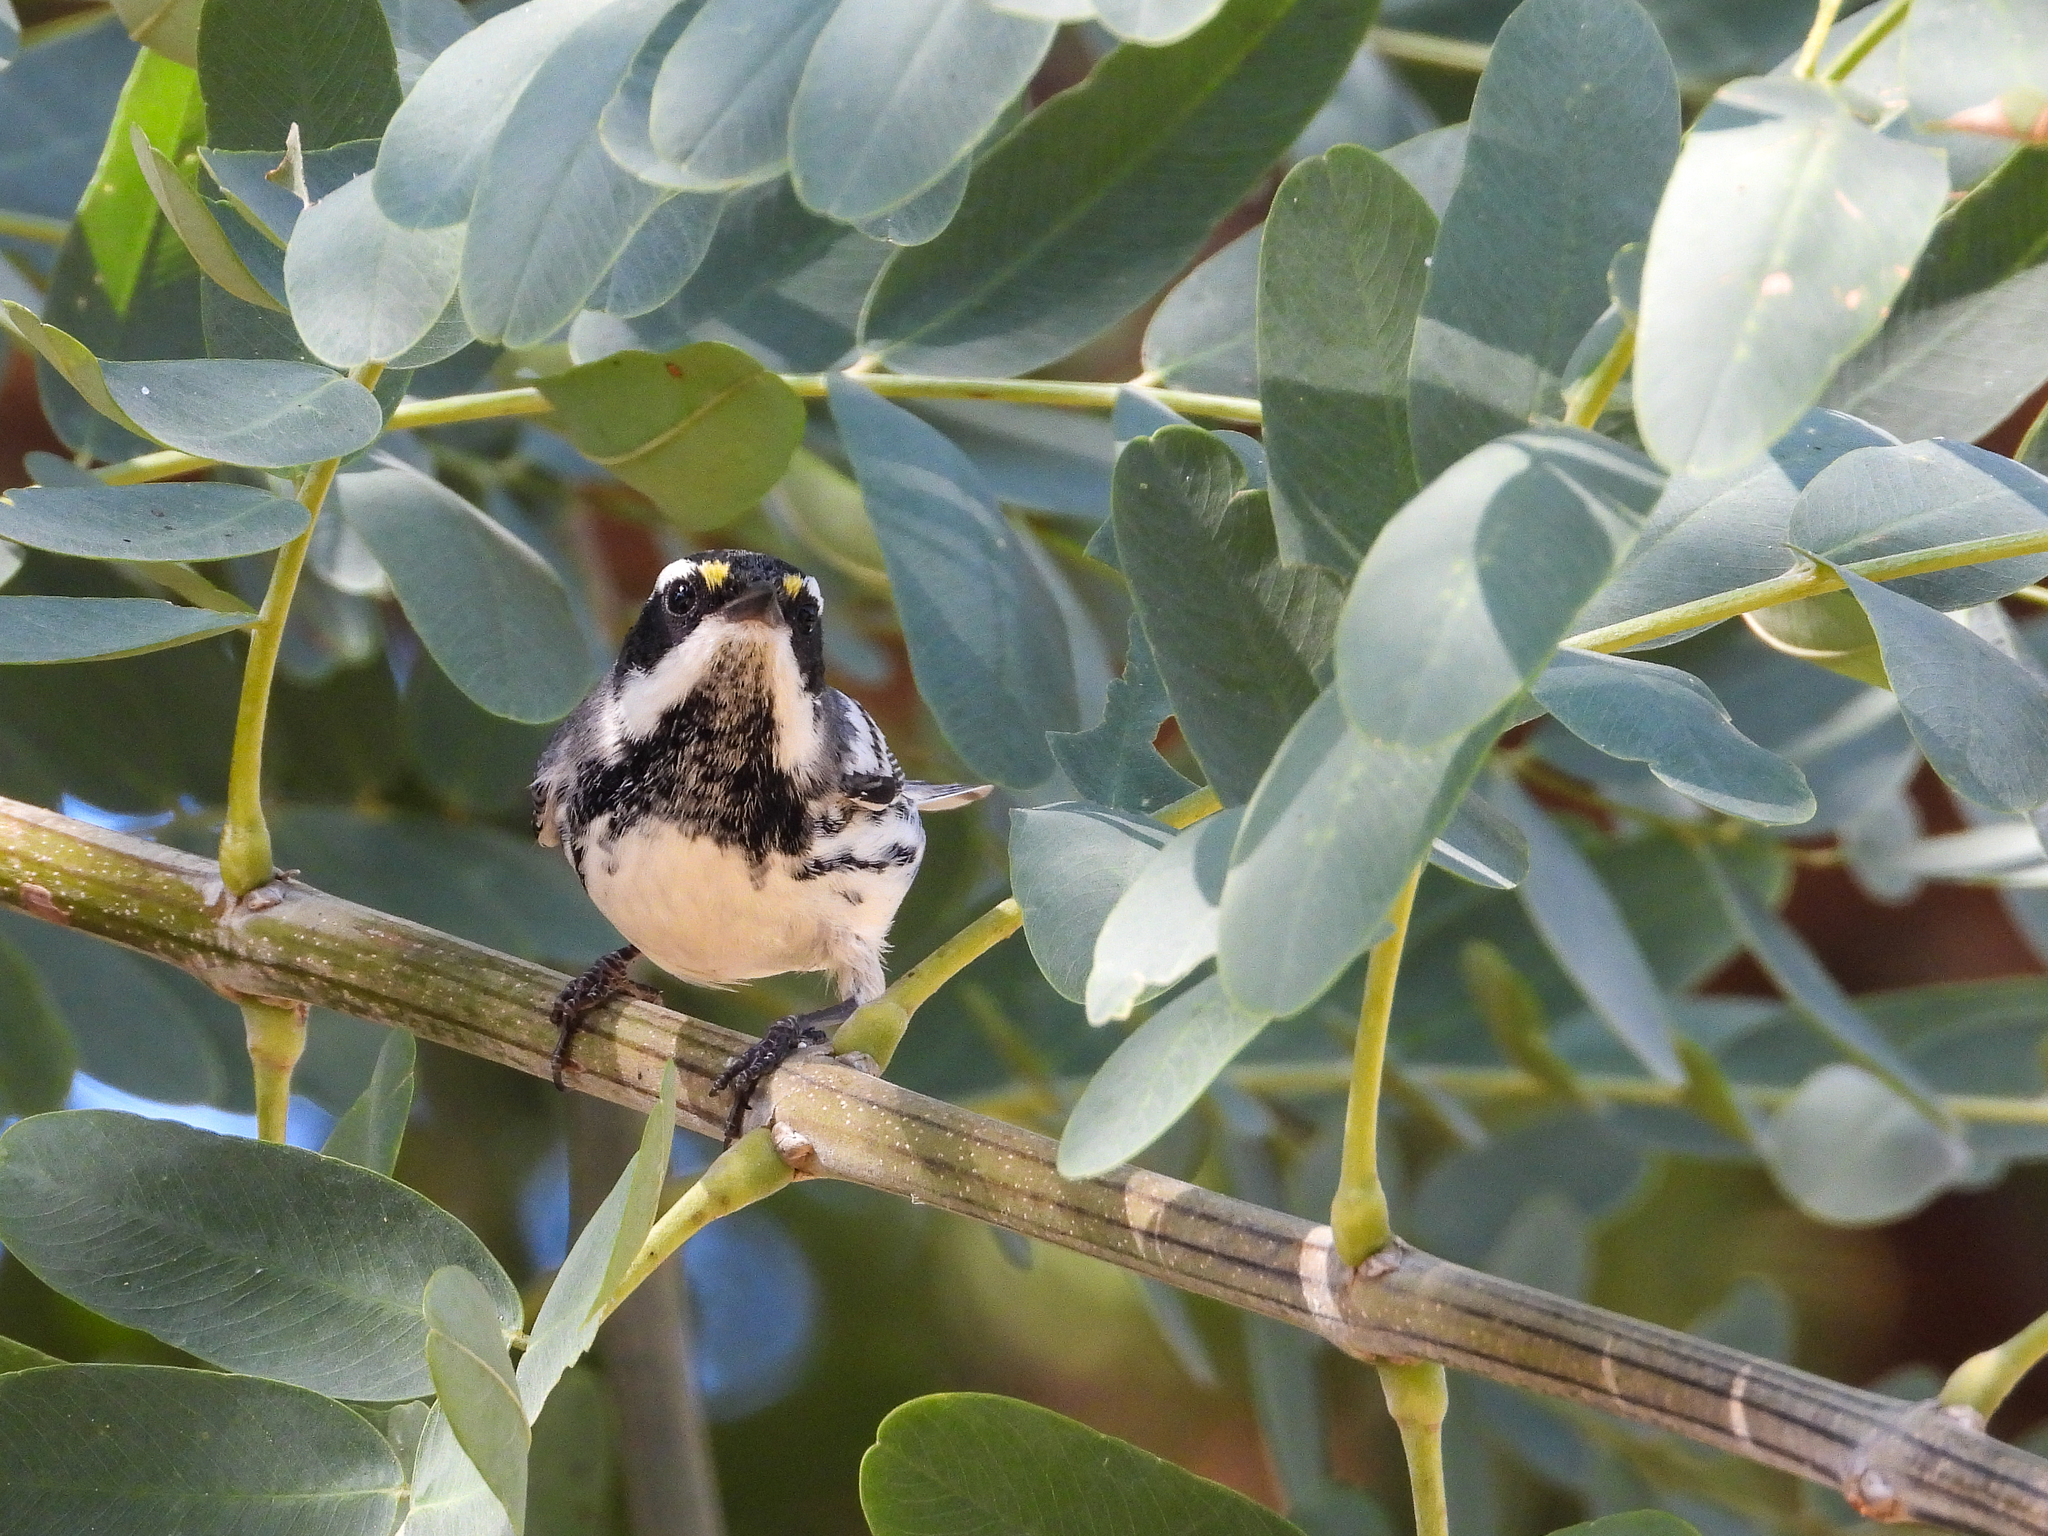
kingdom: Animalia
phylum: Chordata
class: Aves
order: Passeriformes
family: Parulidae
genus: Setophaga
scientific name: Setophaga nigrescens
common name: Black-throated gray warbler
